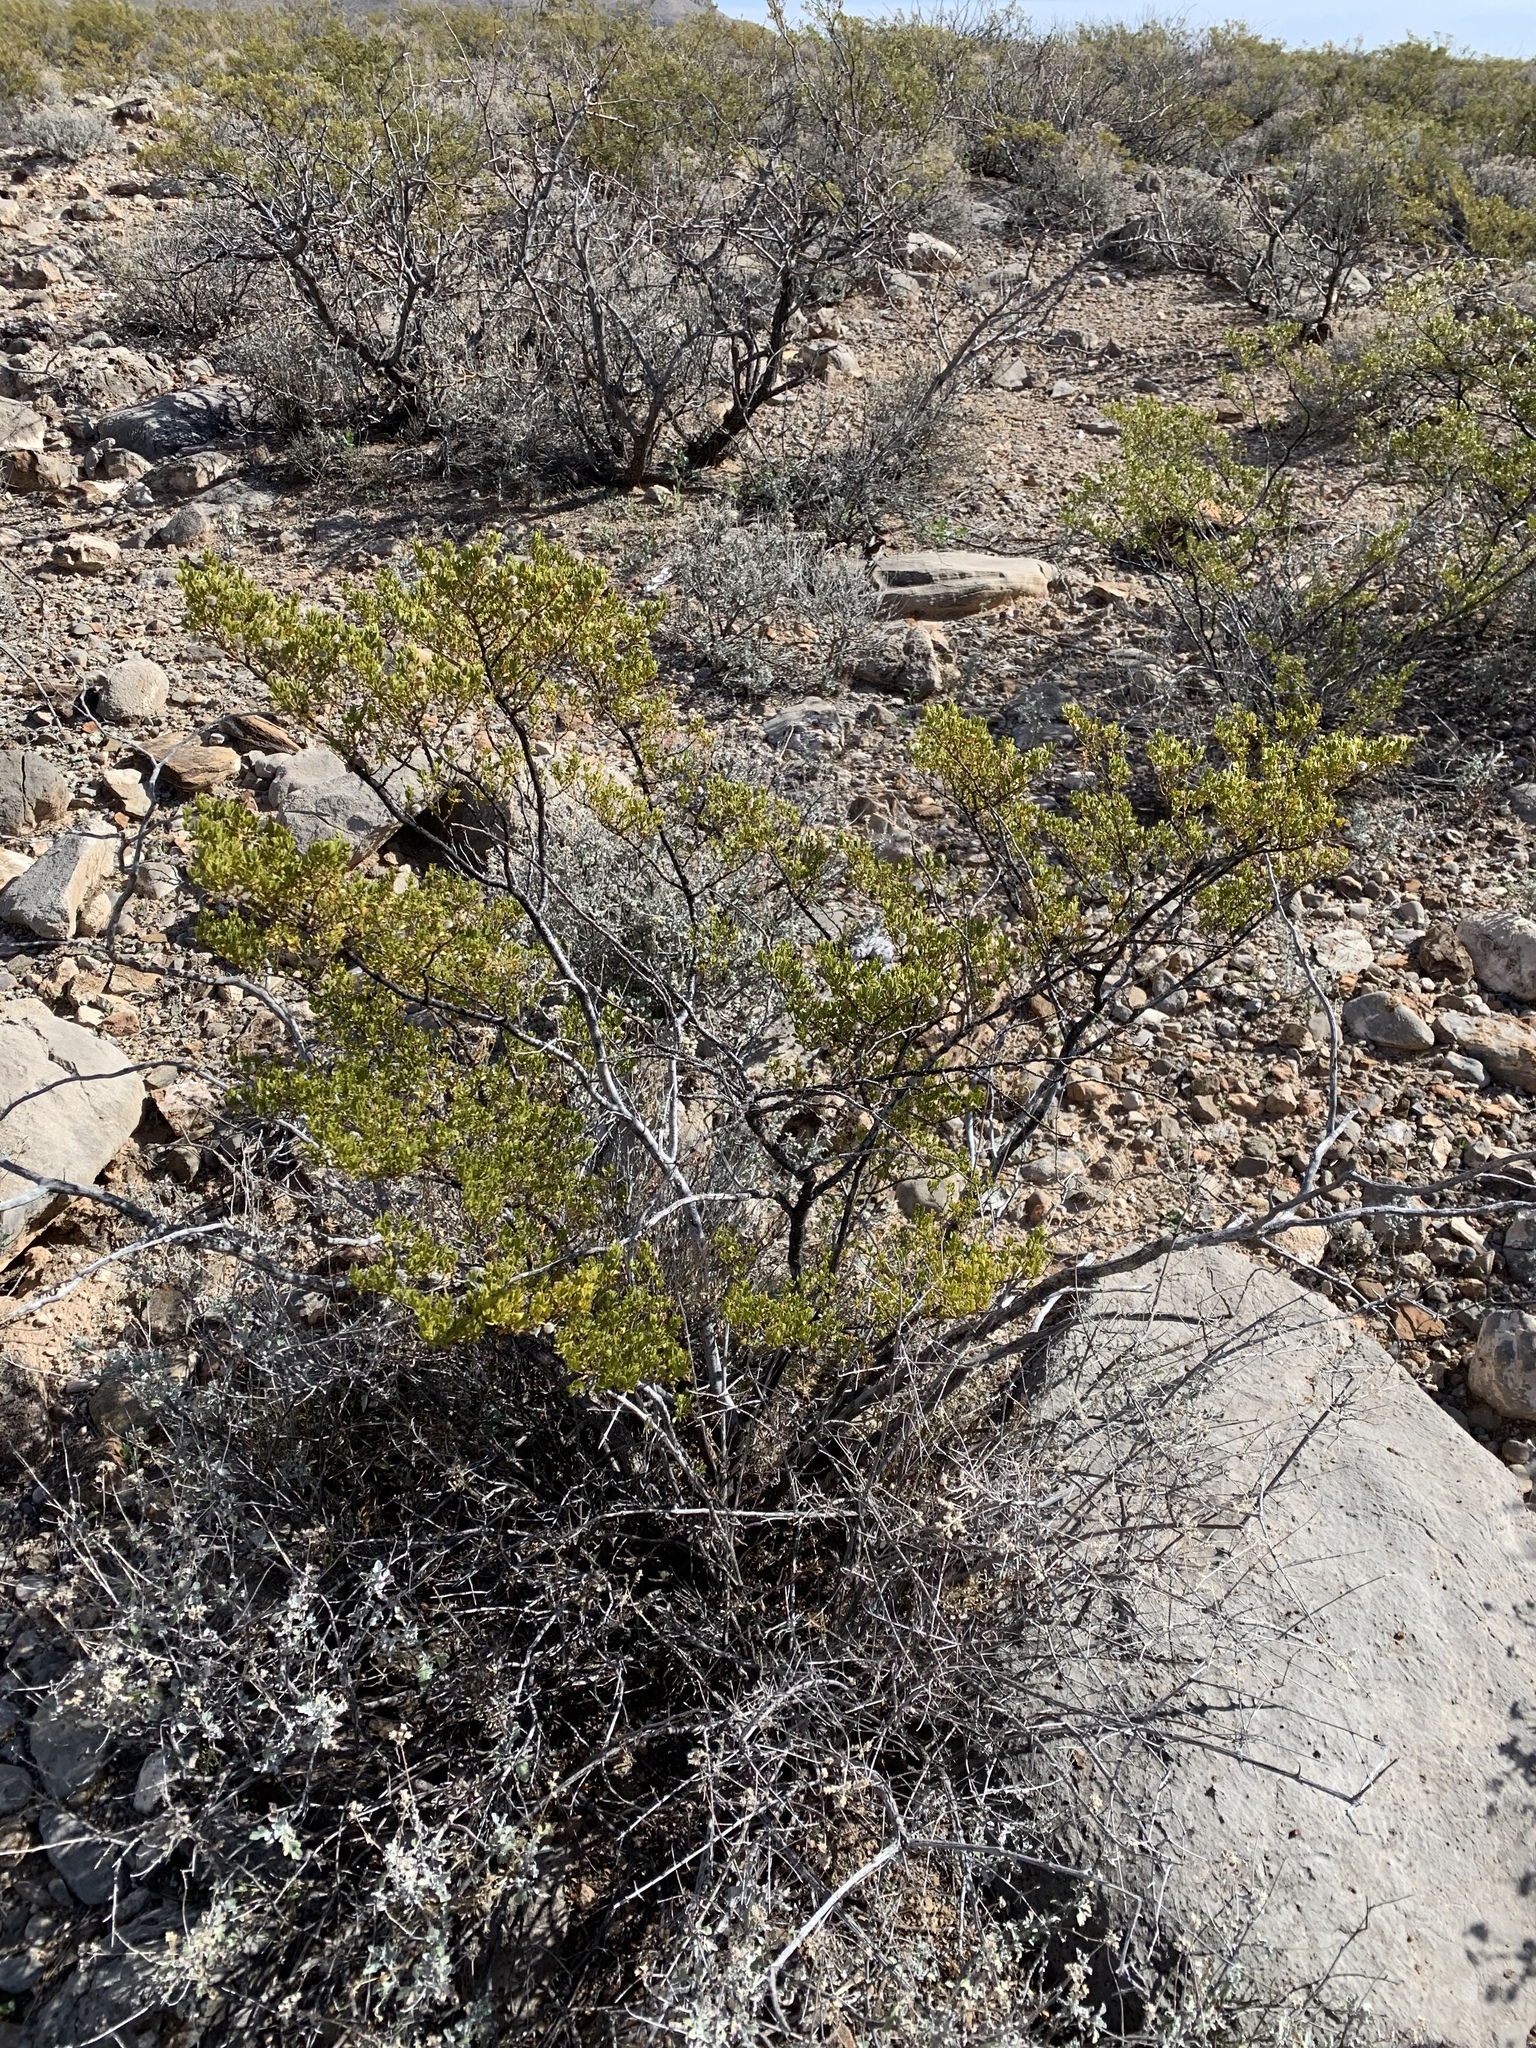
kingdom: Plantae
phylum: Tracheophyta
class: Magnoliopsida
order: Zygophyllales
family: Zygophyllaceae
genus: Larrea
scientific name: Larrea tridentata
